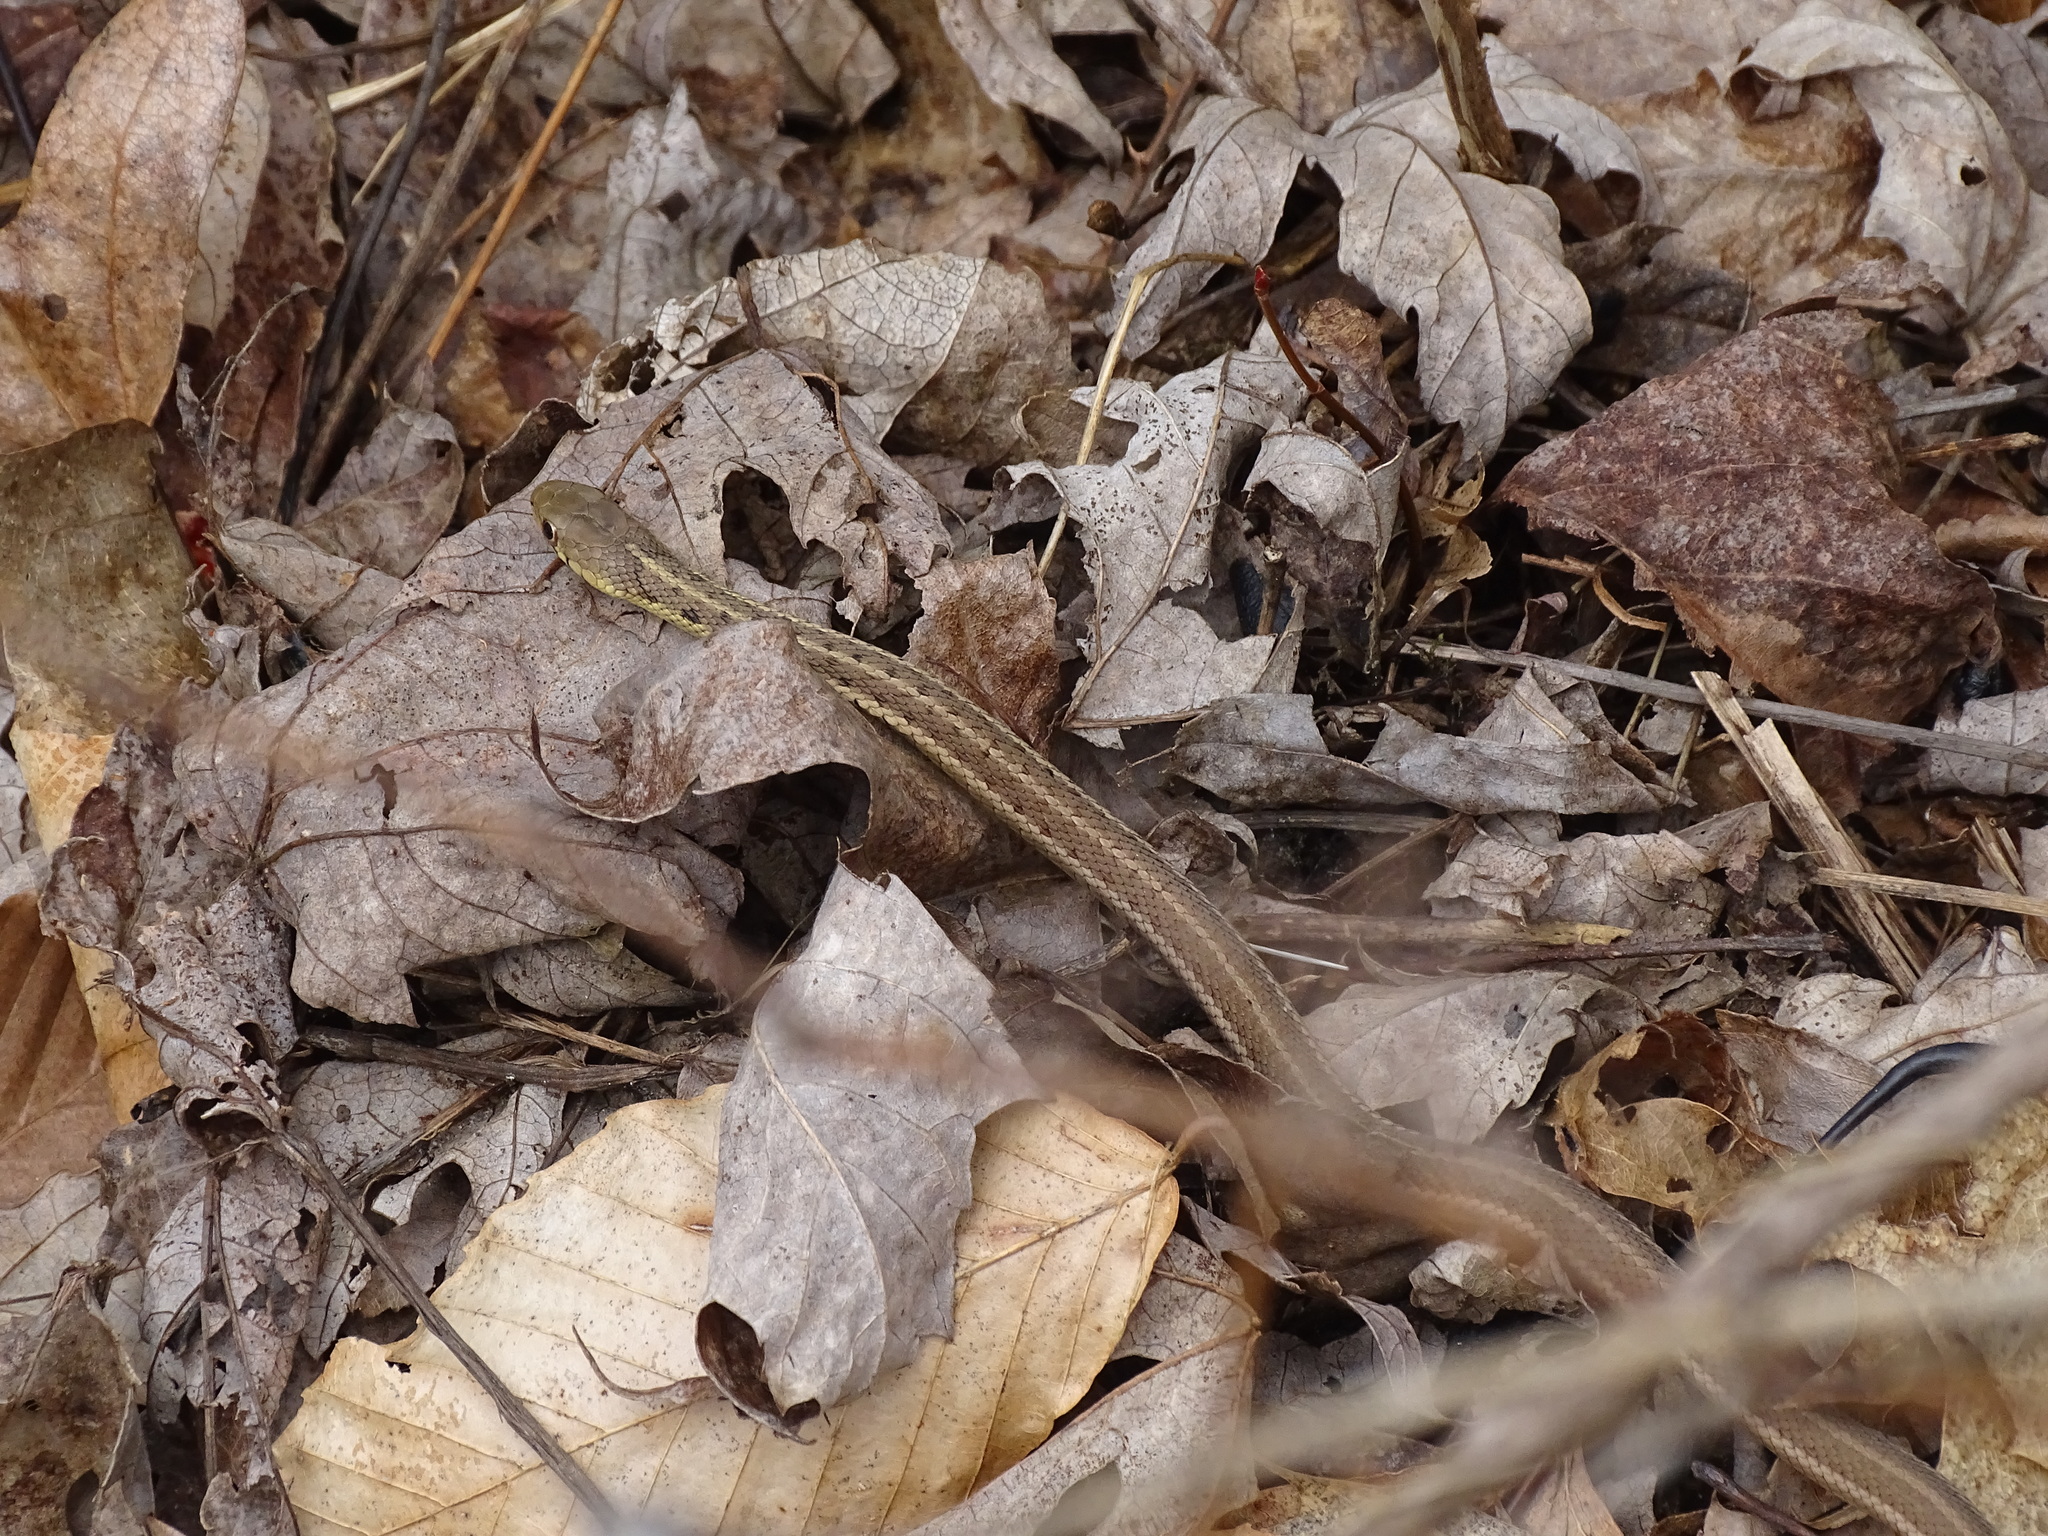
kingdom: Animalia
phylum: Chordata
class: Squamata
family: Colubridae
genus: Thamnophis
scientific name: Thamnophis sirtalis
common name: Common garter snake
